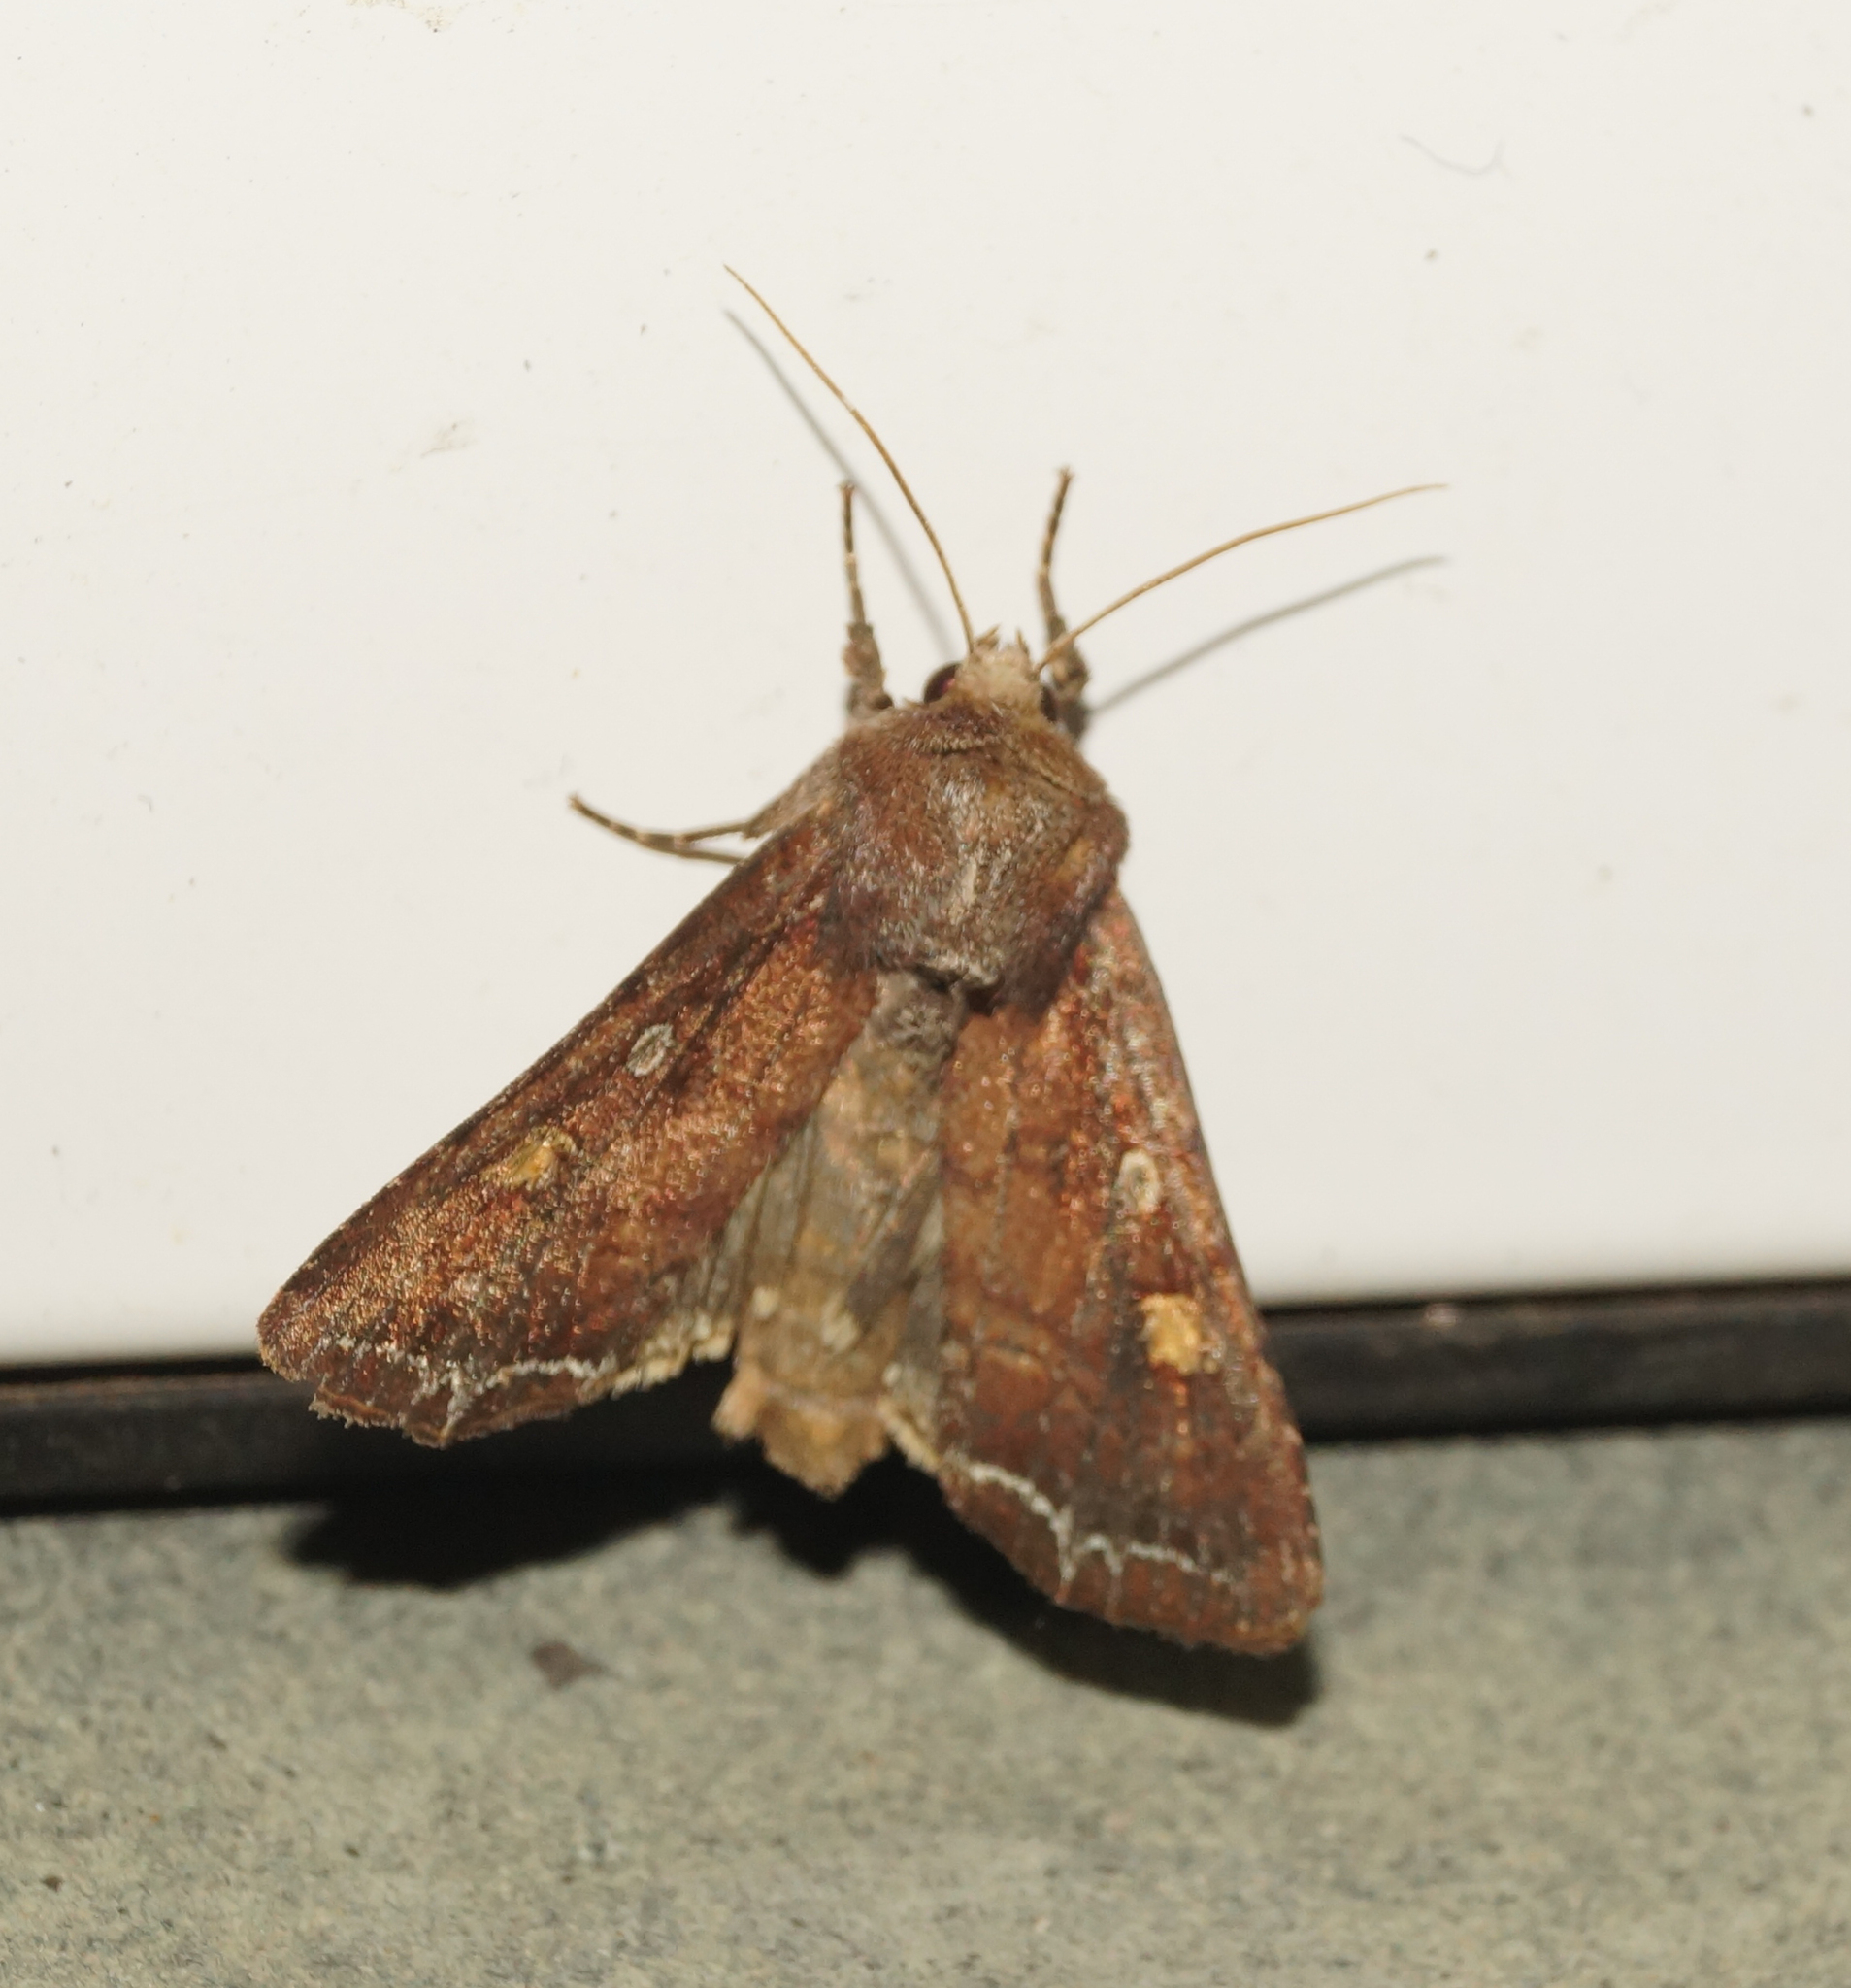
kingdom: Animalia
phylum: Arthropoda
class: Insecta
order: Lepidoptera
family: Noctuidae
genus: Lacanobia
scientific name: Lacanobia oleracea
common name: Bright-line brown-eye
